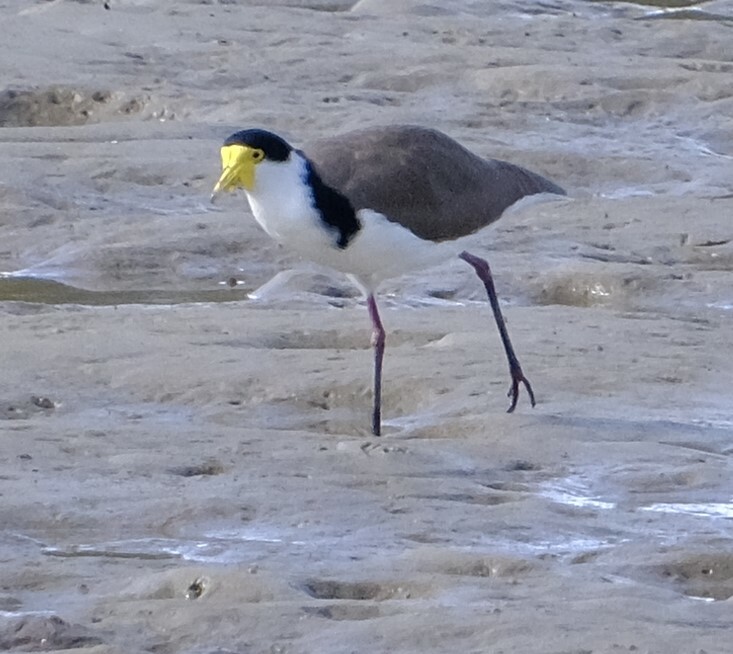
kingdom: Animalia
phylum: Chordata
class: Aves
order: Charadriiformes
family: Charadriidae
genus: Vanellus
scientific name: Vanellus miles
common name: Masked lapwing
